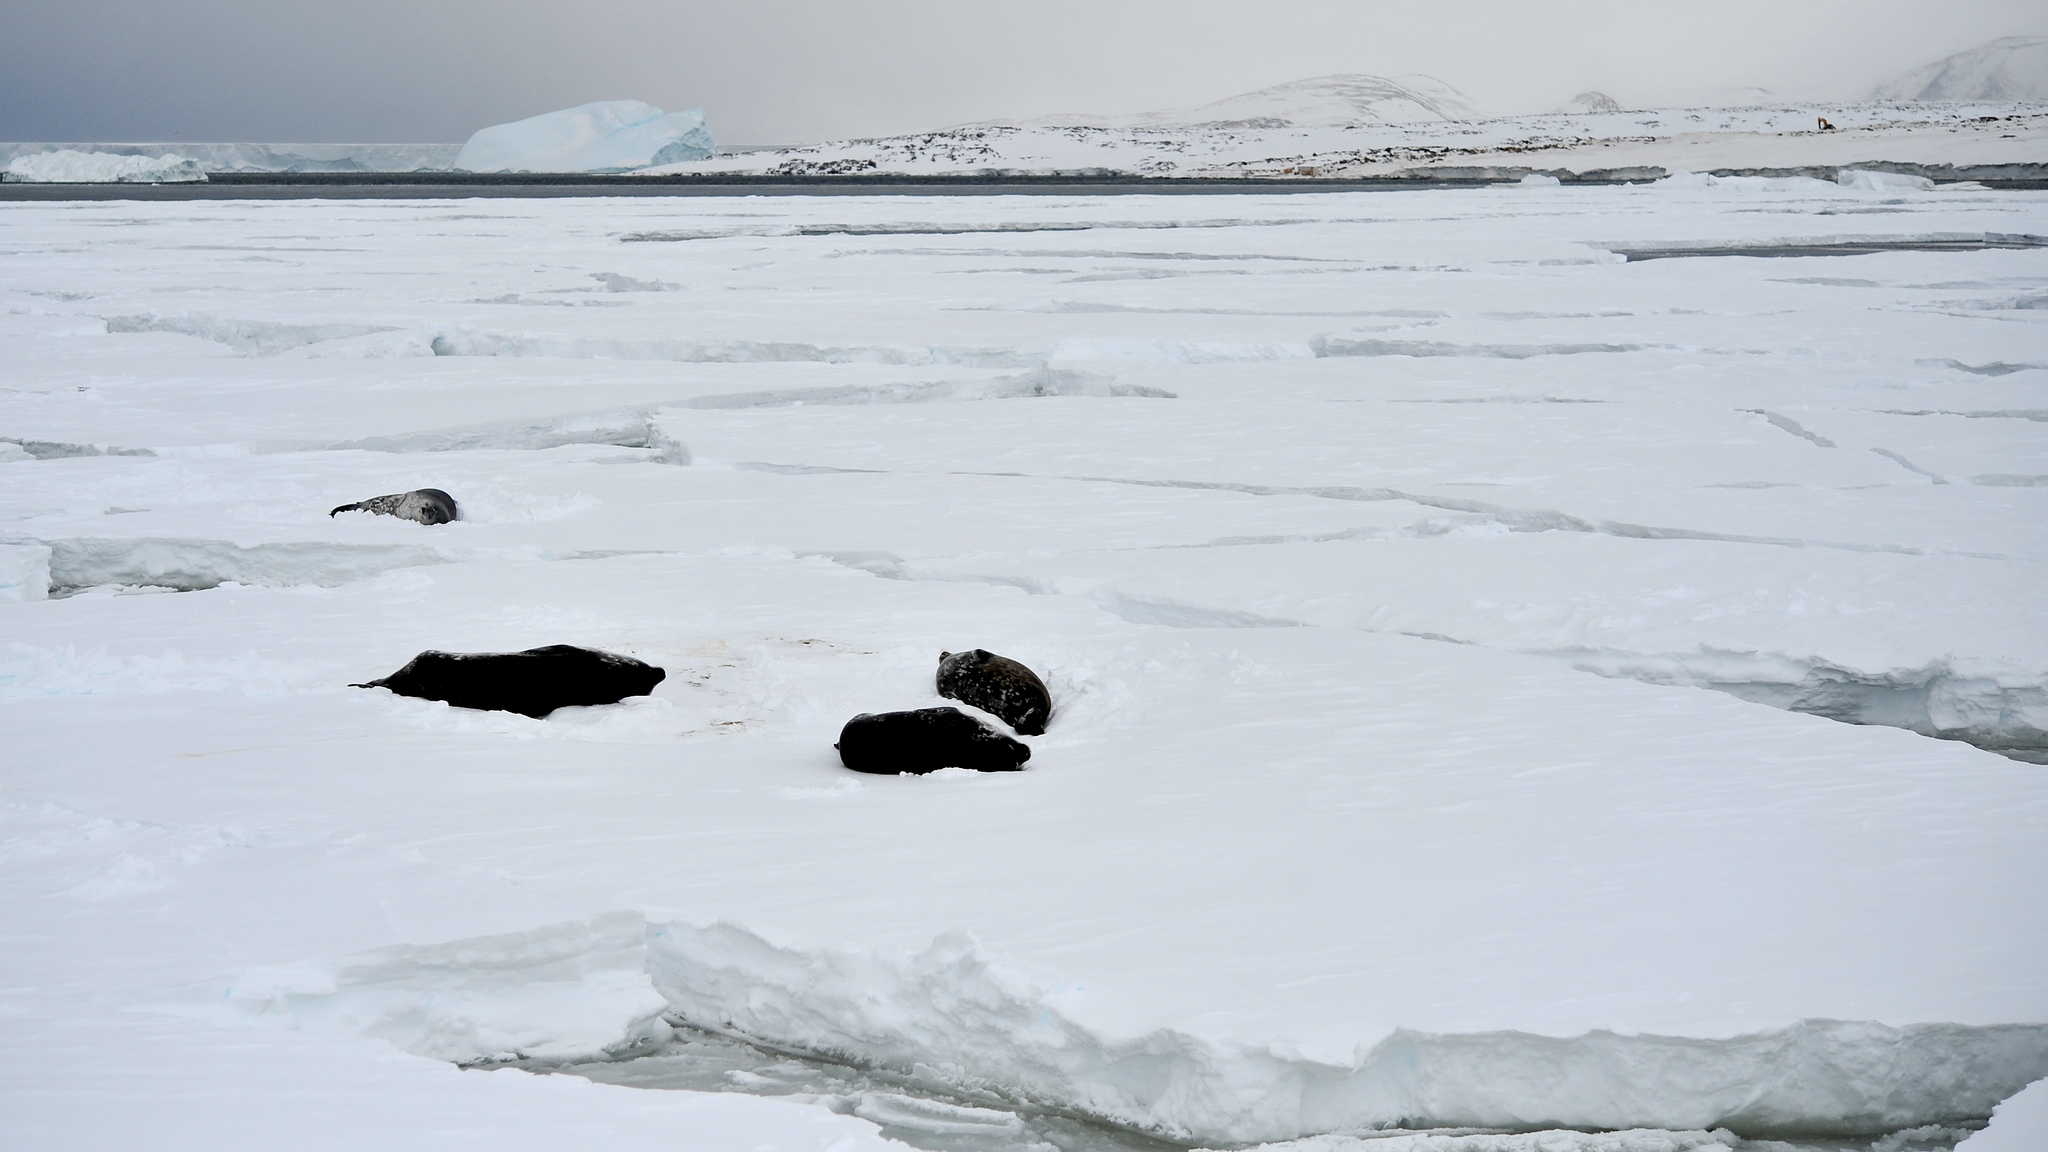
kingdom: Animalia
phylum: Chordata
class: Mammalia
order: Carnivora
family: Phocidae
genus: Leptonychotes
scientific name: Leptonychotes weddellii
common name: Weddell seal
